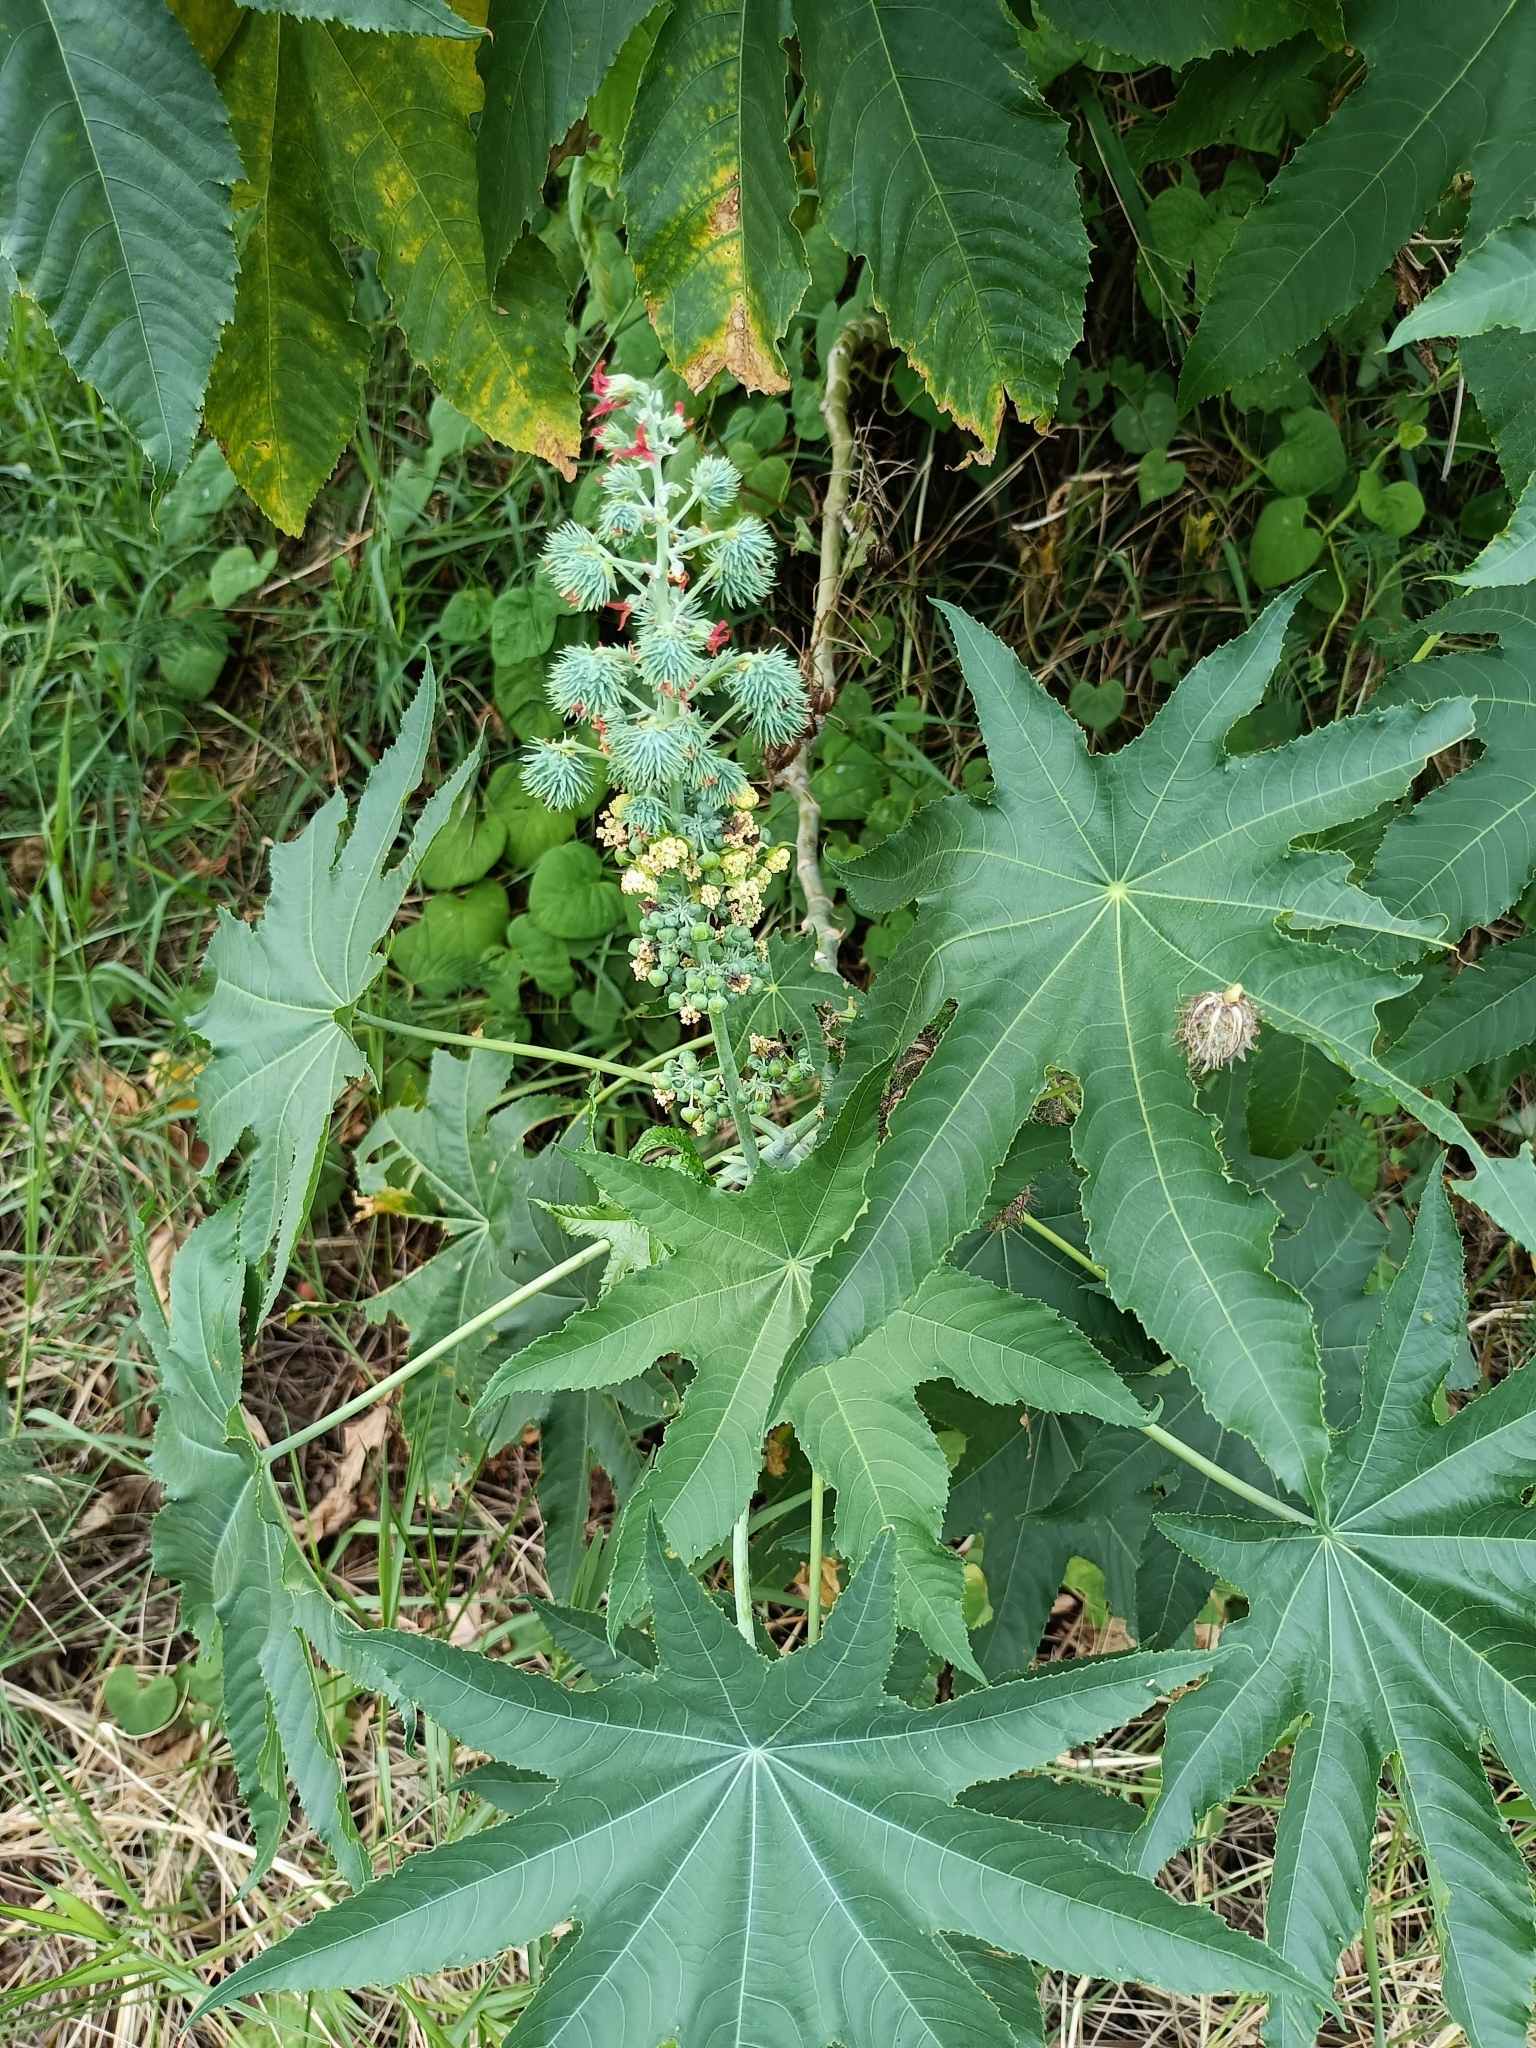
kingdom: Plantae
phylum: Tracheophyta
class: Magnoliopsida
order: Malpighiales
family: Euphorbiaceae
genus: Ricinus
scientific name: Ricinus communis
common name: Castor-oil-plant
